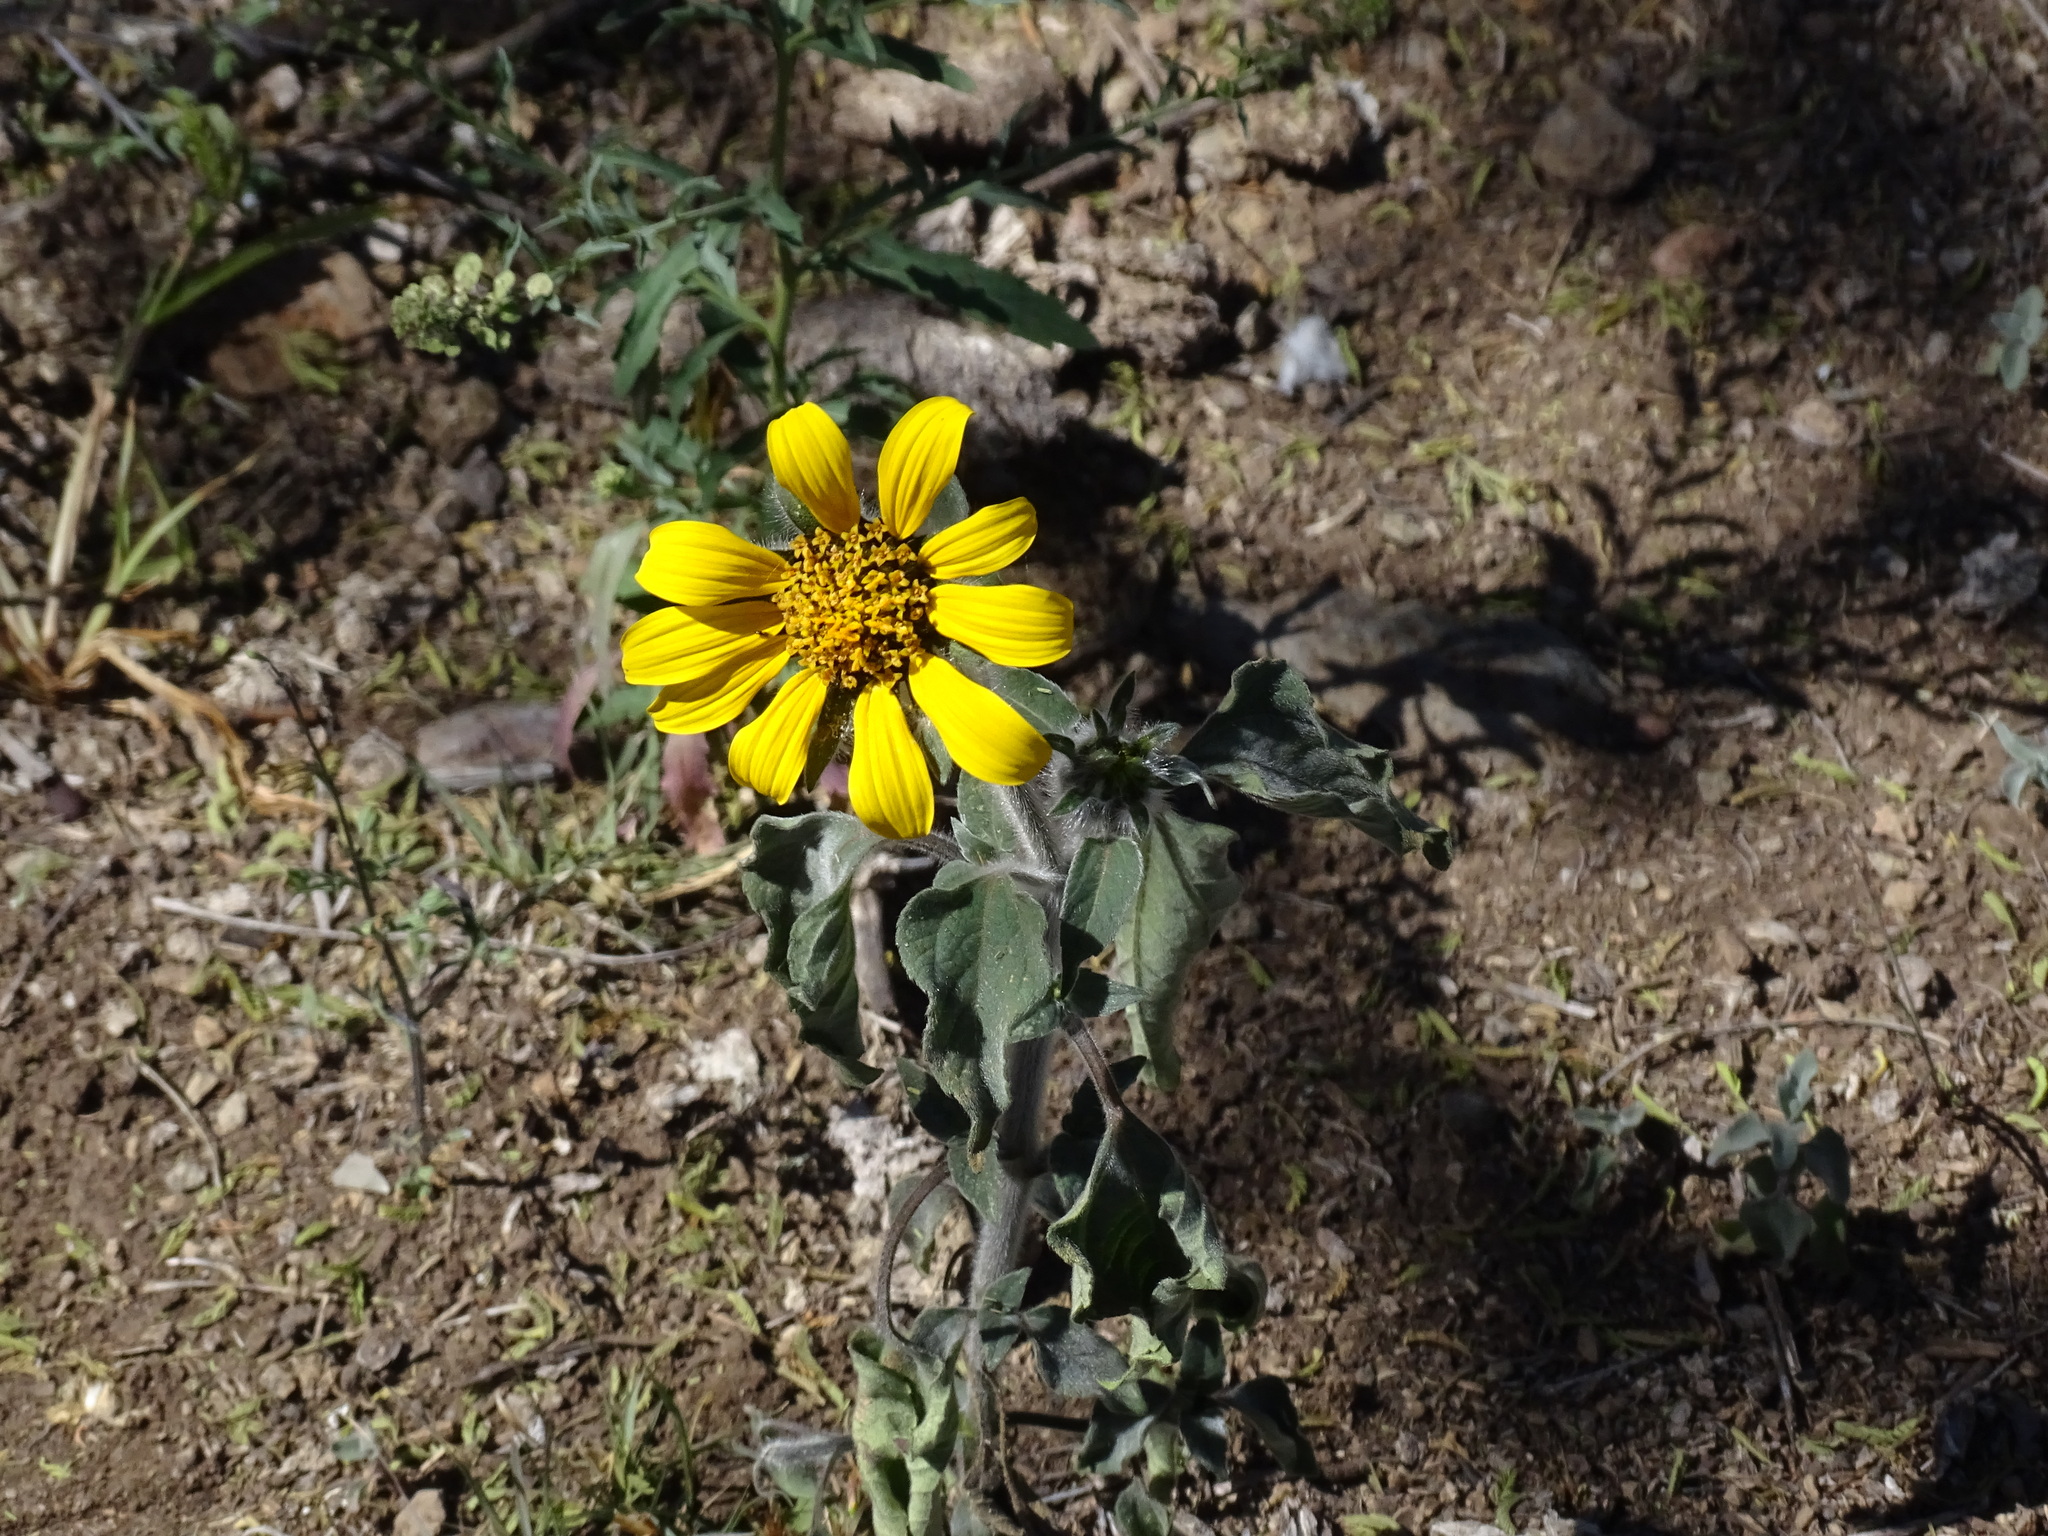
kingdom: Plantae
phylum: Tracheophyta
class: Magnoliopsida
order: Asterales
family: Asteraceae
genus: Tithonia
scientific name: Tithonia tubaeformis
